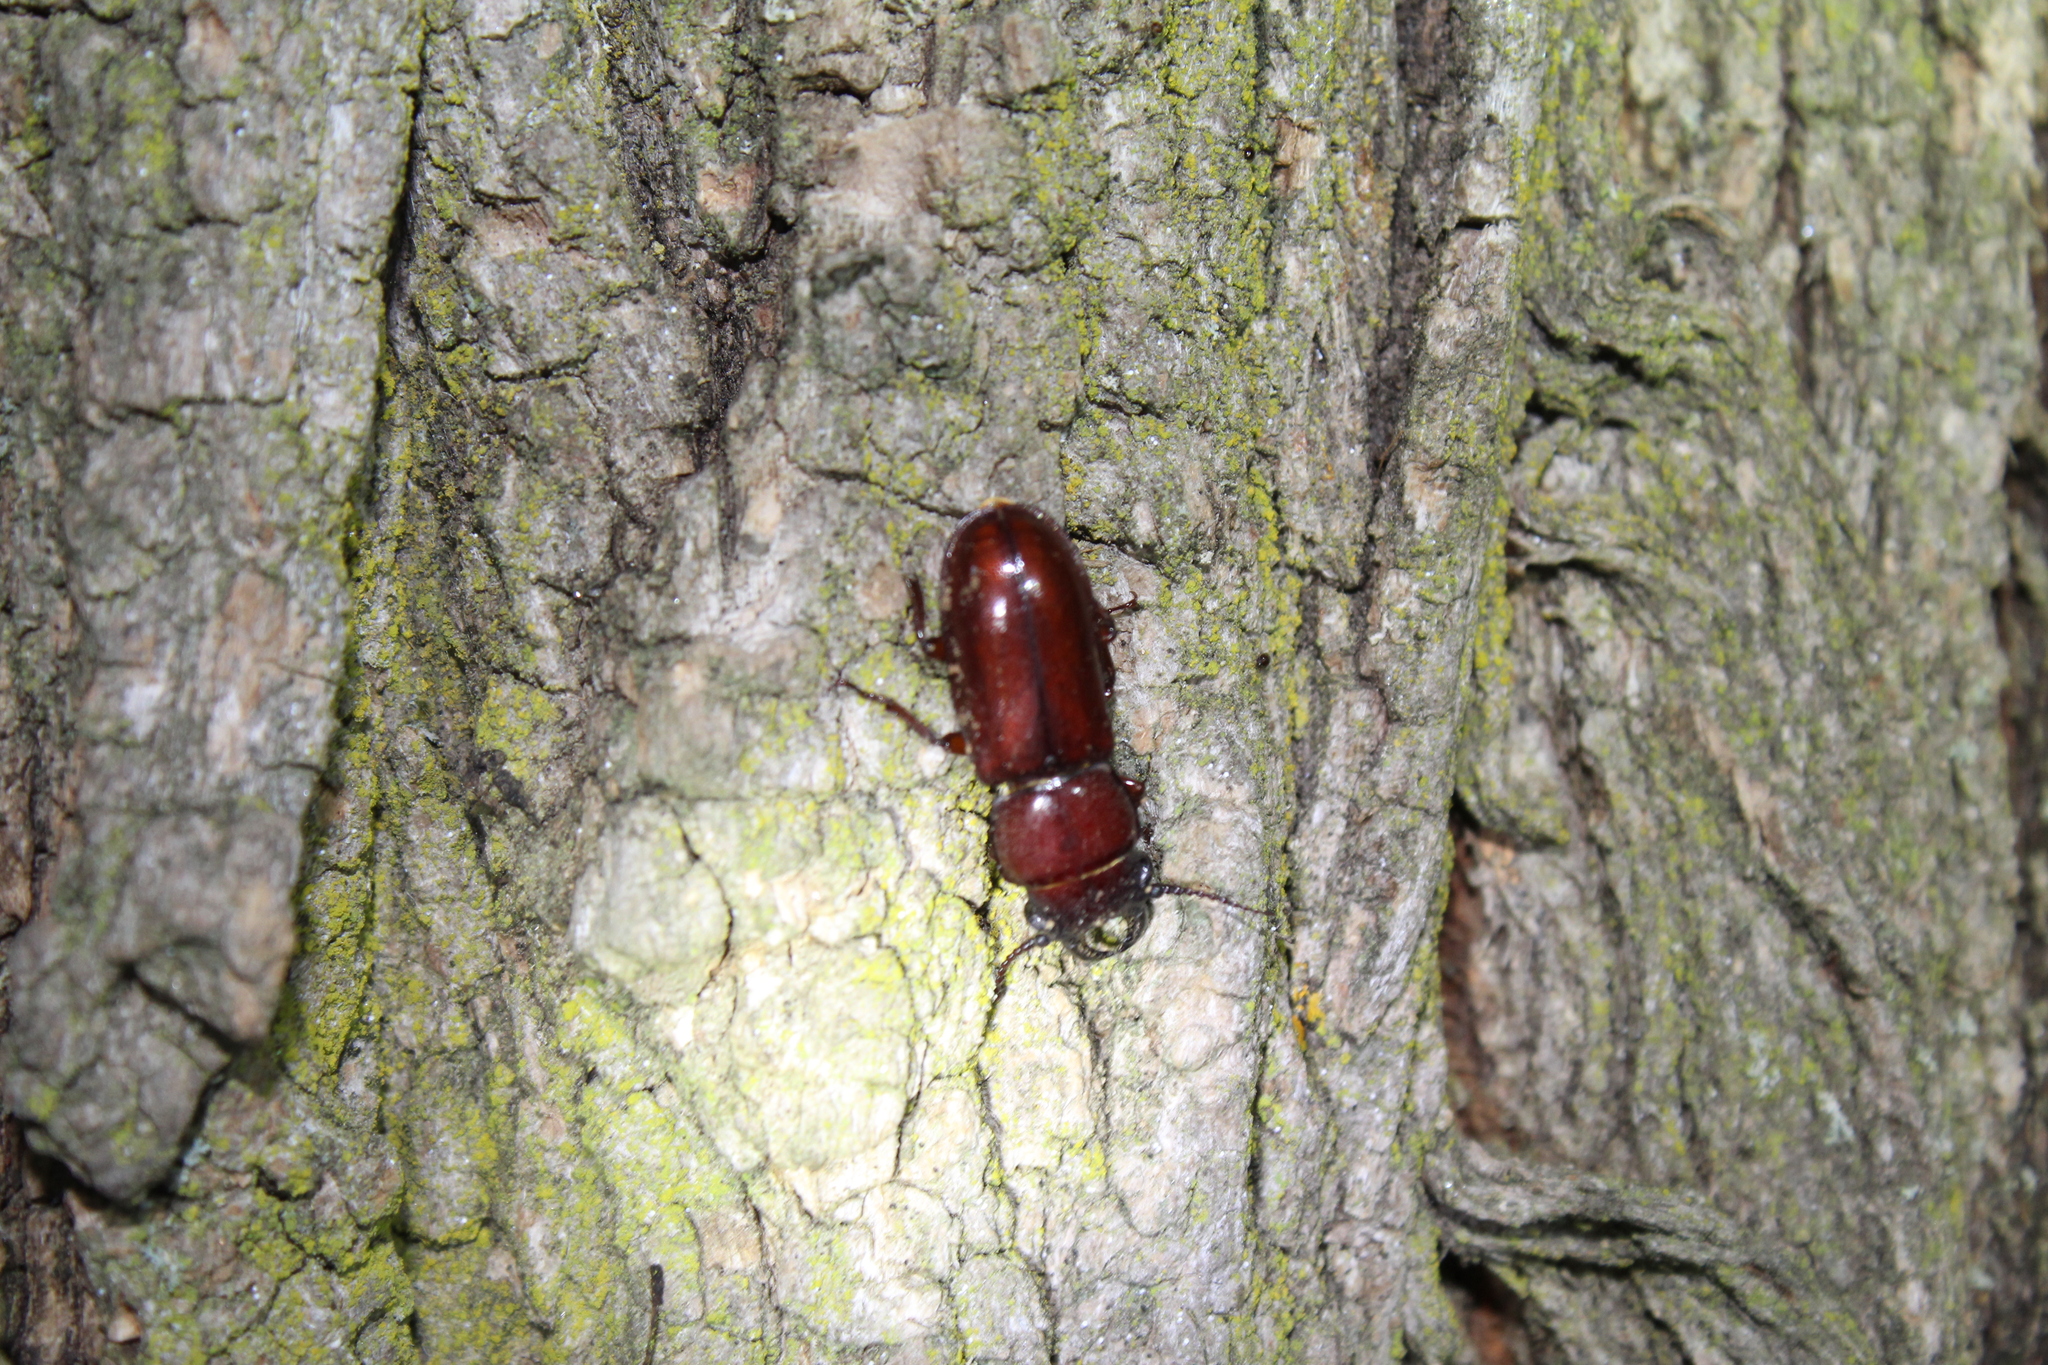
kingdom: Animalia
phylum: Arthropoda
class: Insecta
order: Coleoptera
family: Cerambycidae
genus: Neandra
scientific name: Neandra brunnea
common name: Pole borer
